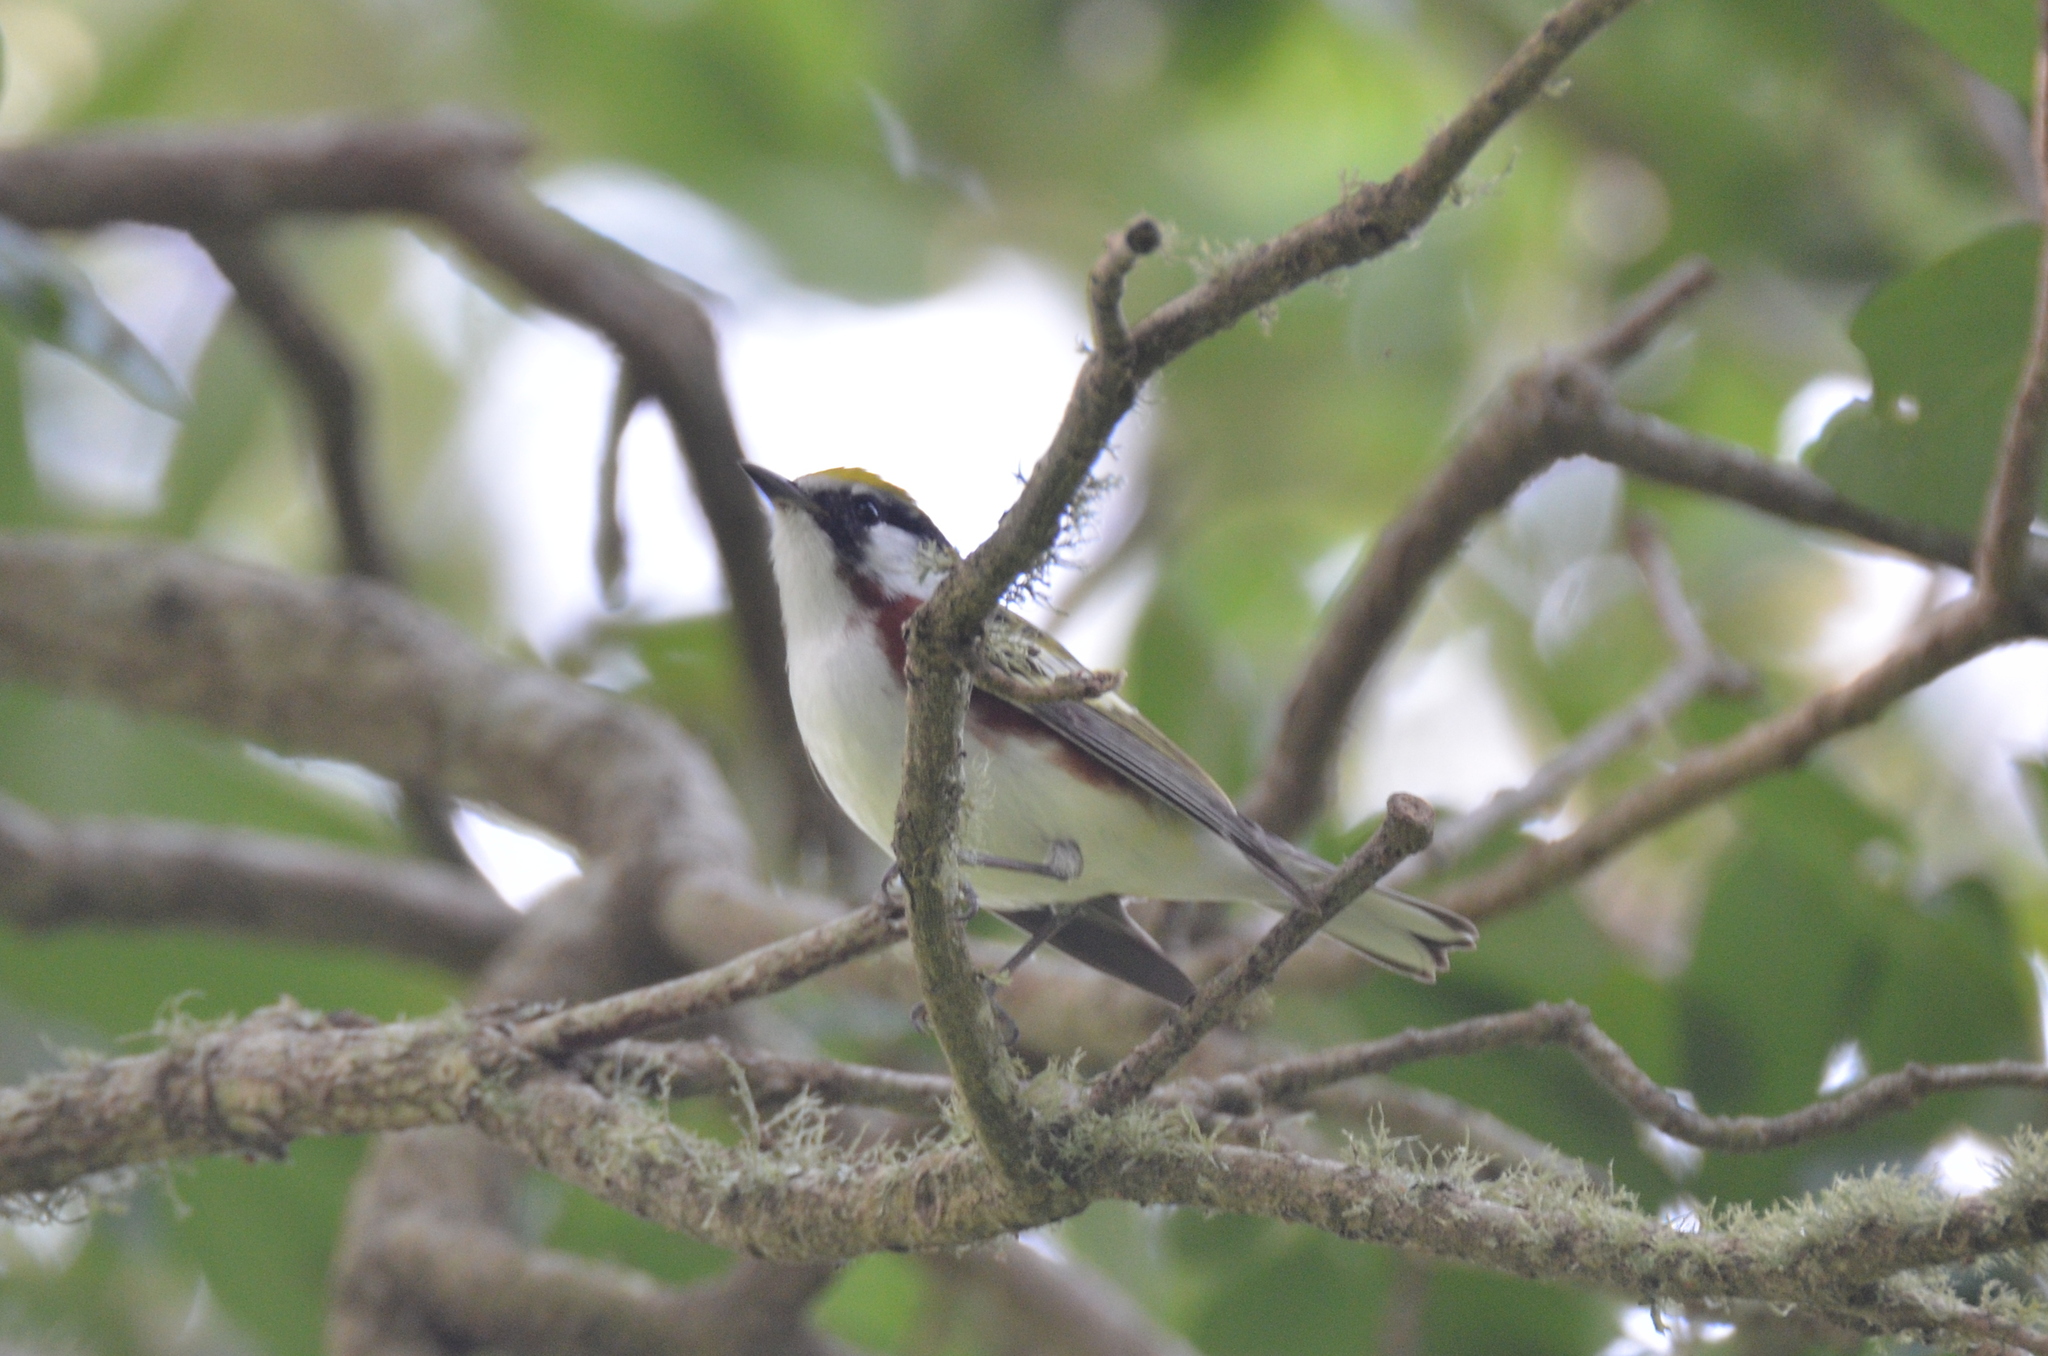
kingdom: Animalia
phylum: Chordata
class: Aves
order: Passeriformes
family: Parulidae
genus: Setophaga
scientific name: Setophaga pensylvanica
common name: Chestnut-sided warbler
